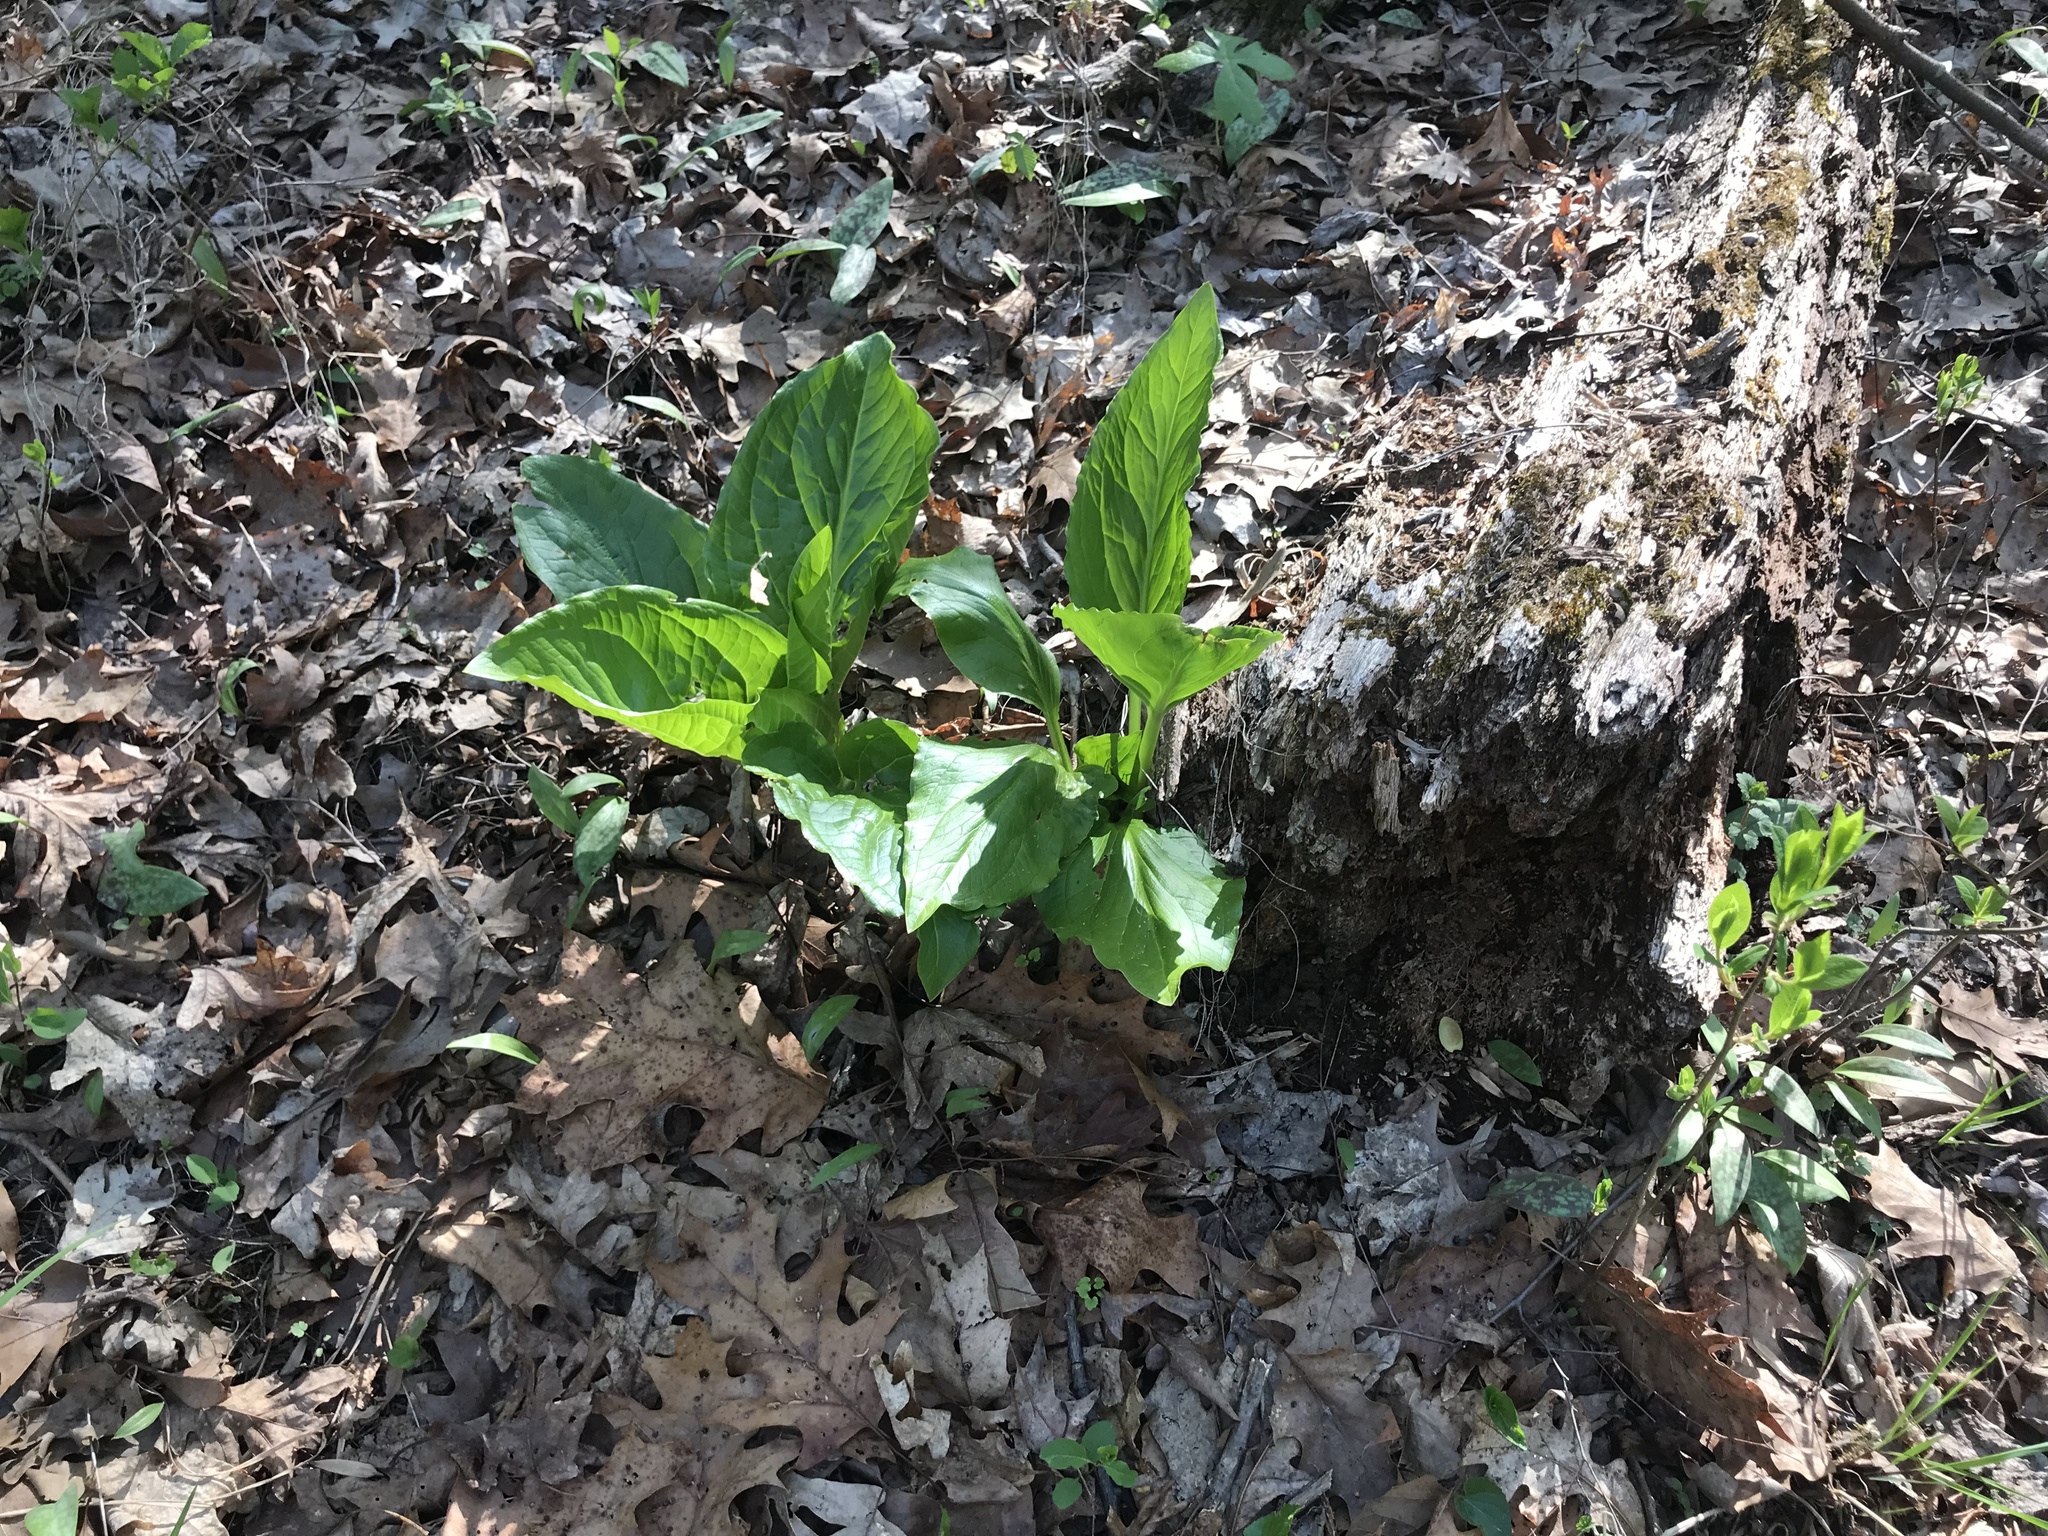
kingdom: Plantae
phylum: Tracheophyta
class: Liliopsida
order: Alismatales
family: Araceae
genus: Symplocarpus
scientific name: Symplocarpus foetidus
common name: Eastern skunk cabbage
